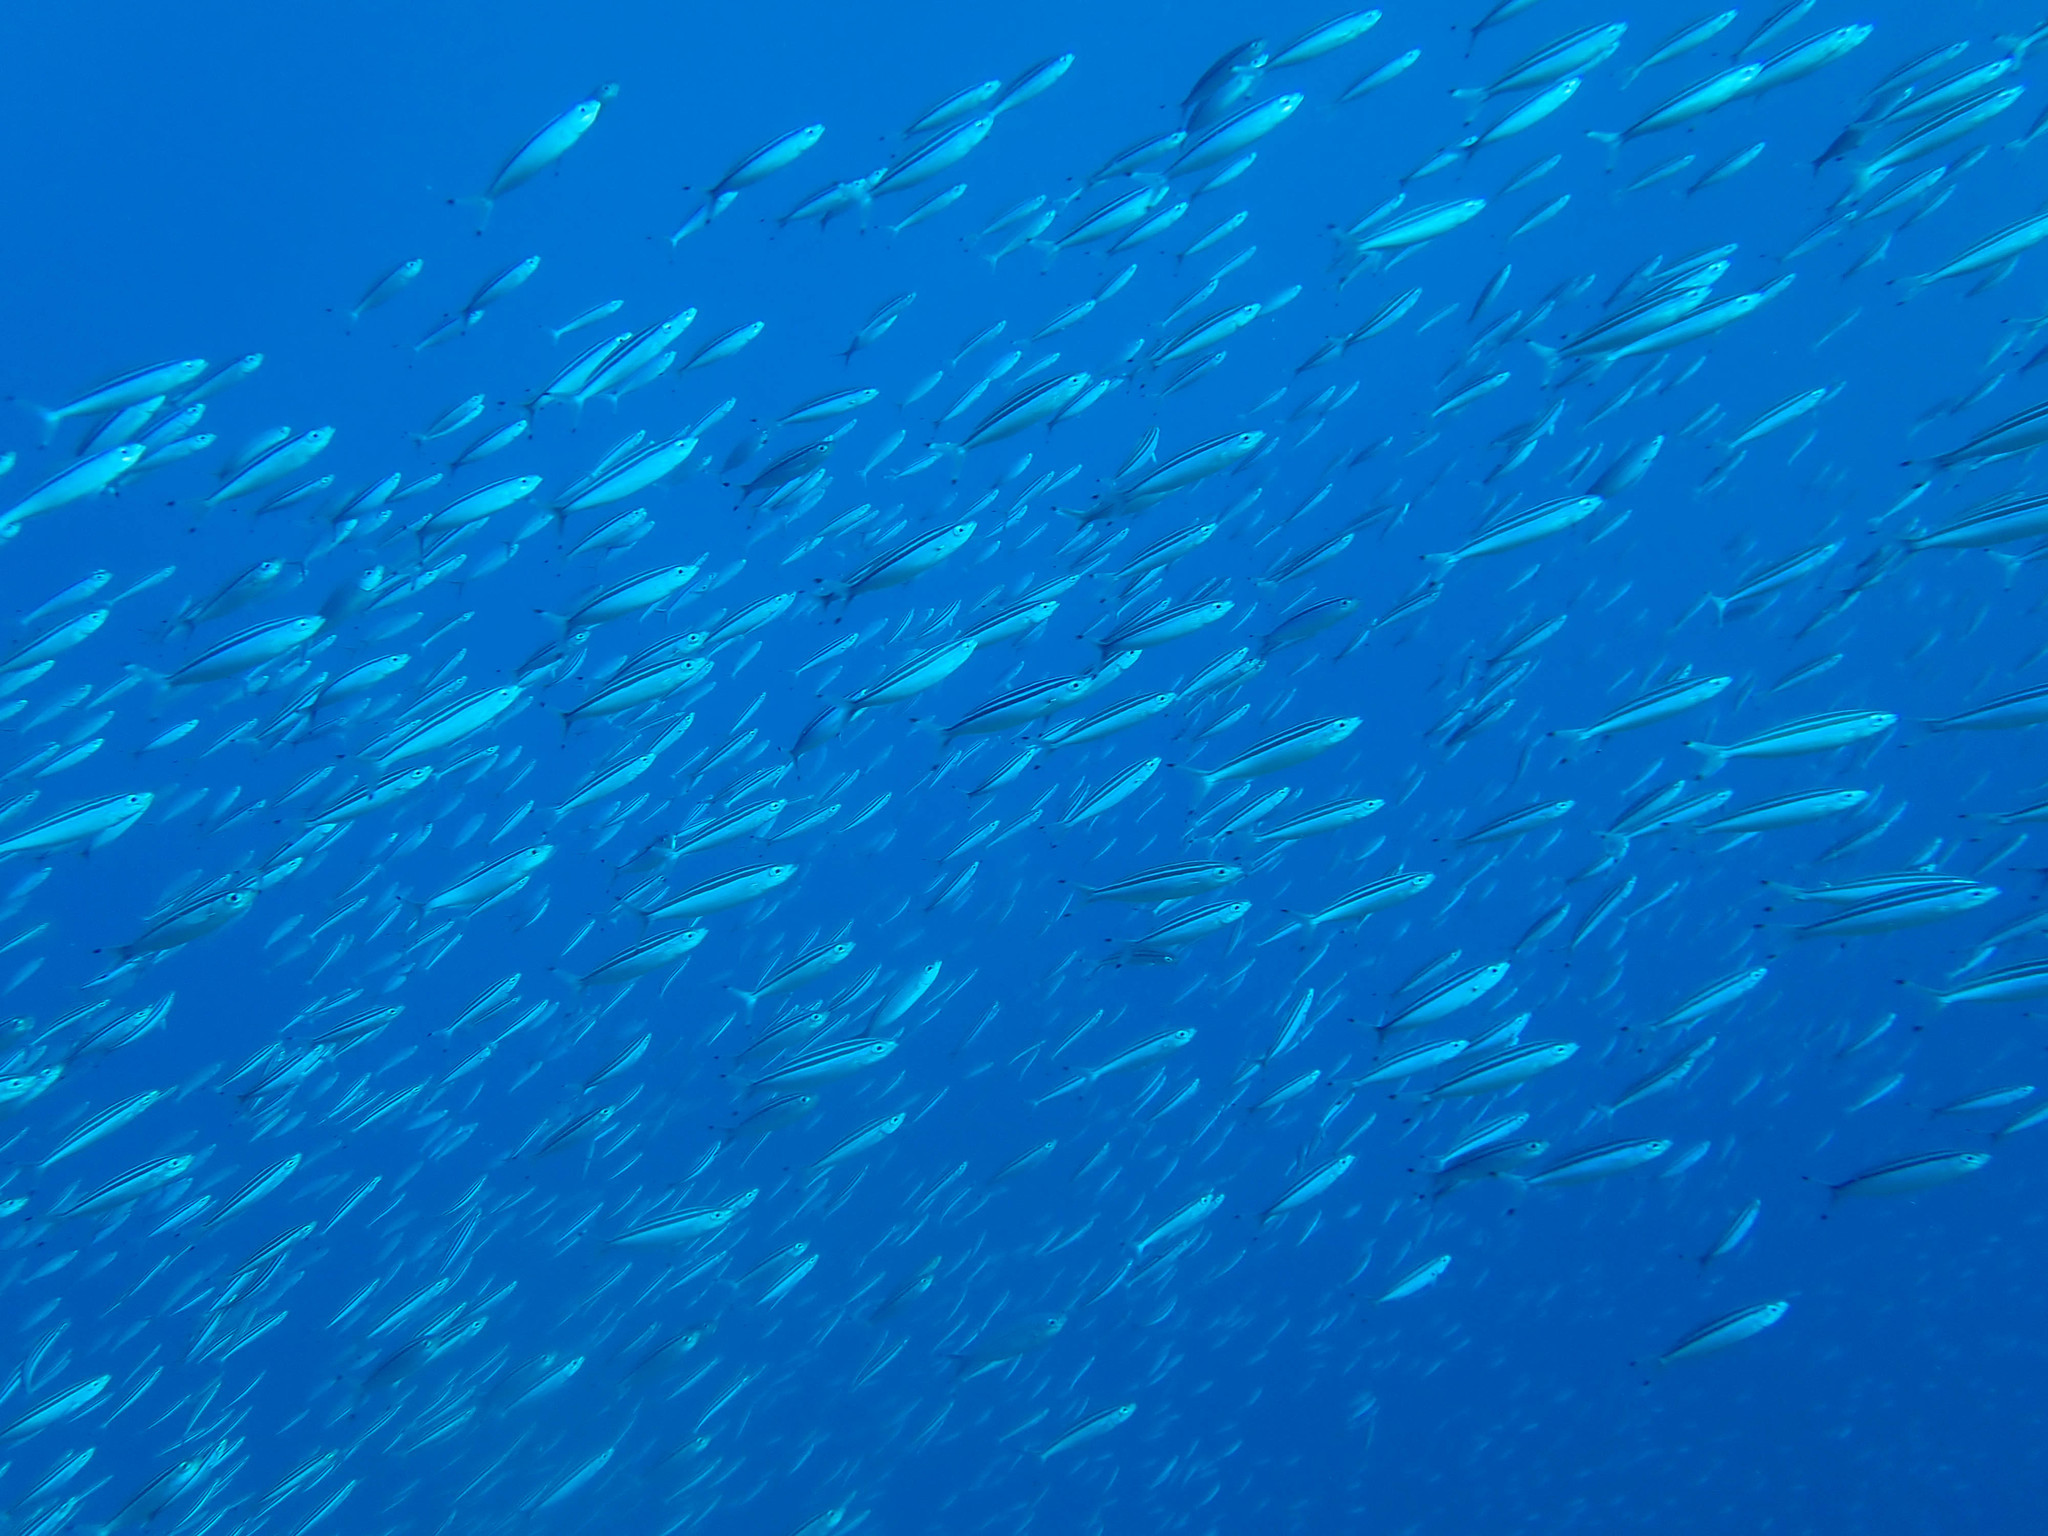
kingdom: Animalia
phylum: Chordata
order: Perciformes
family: Caesionidae
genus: Pterocaesio
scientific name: Pterocaesio trilineata
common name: Striped fusilier
